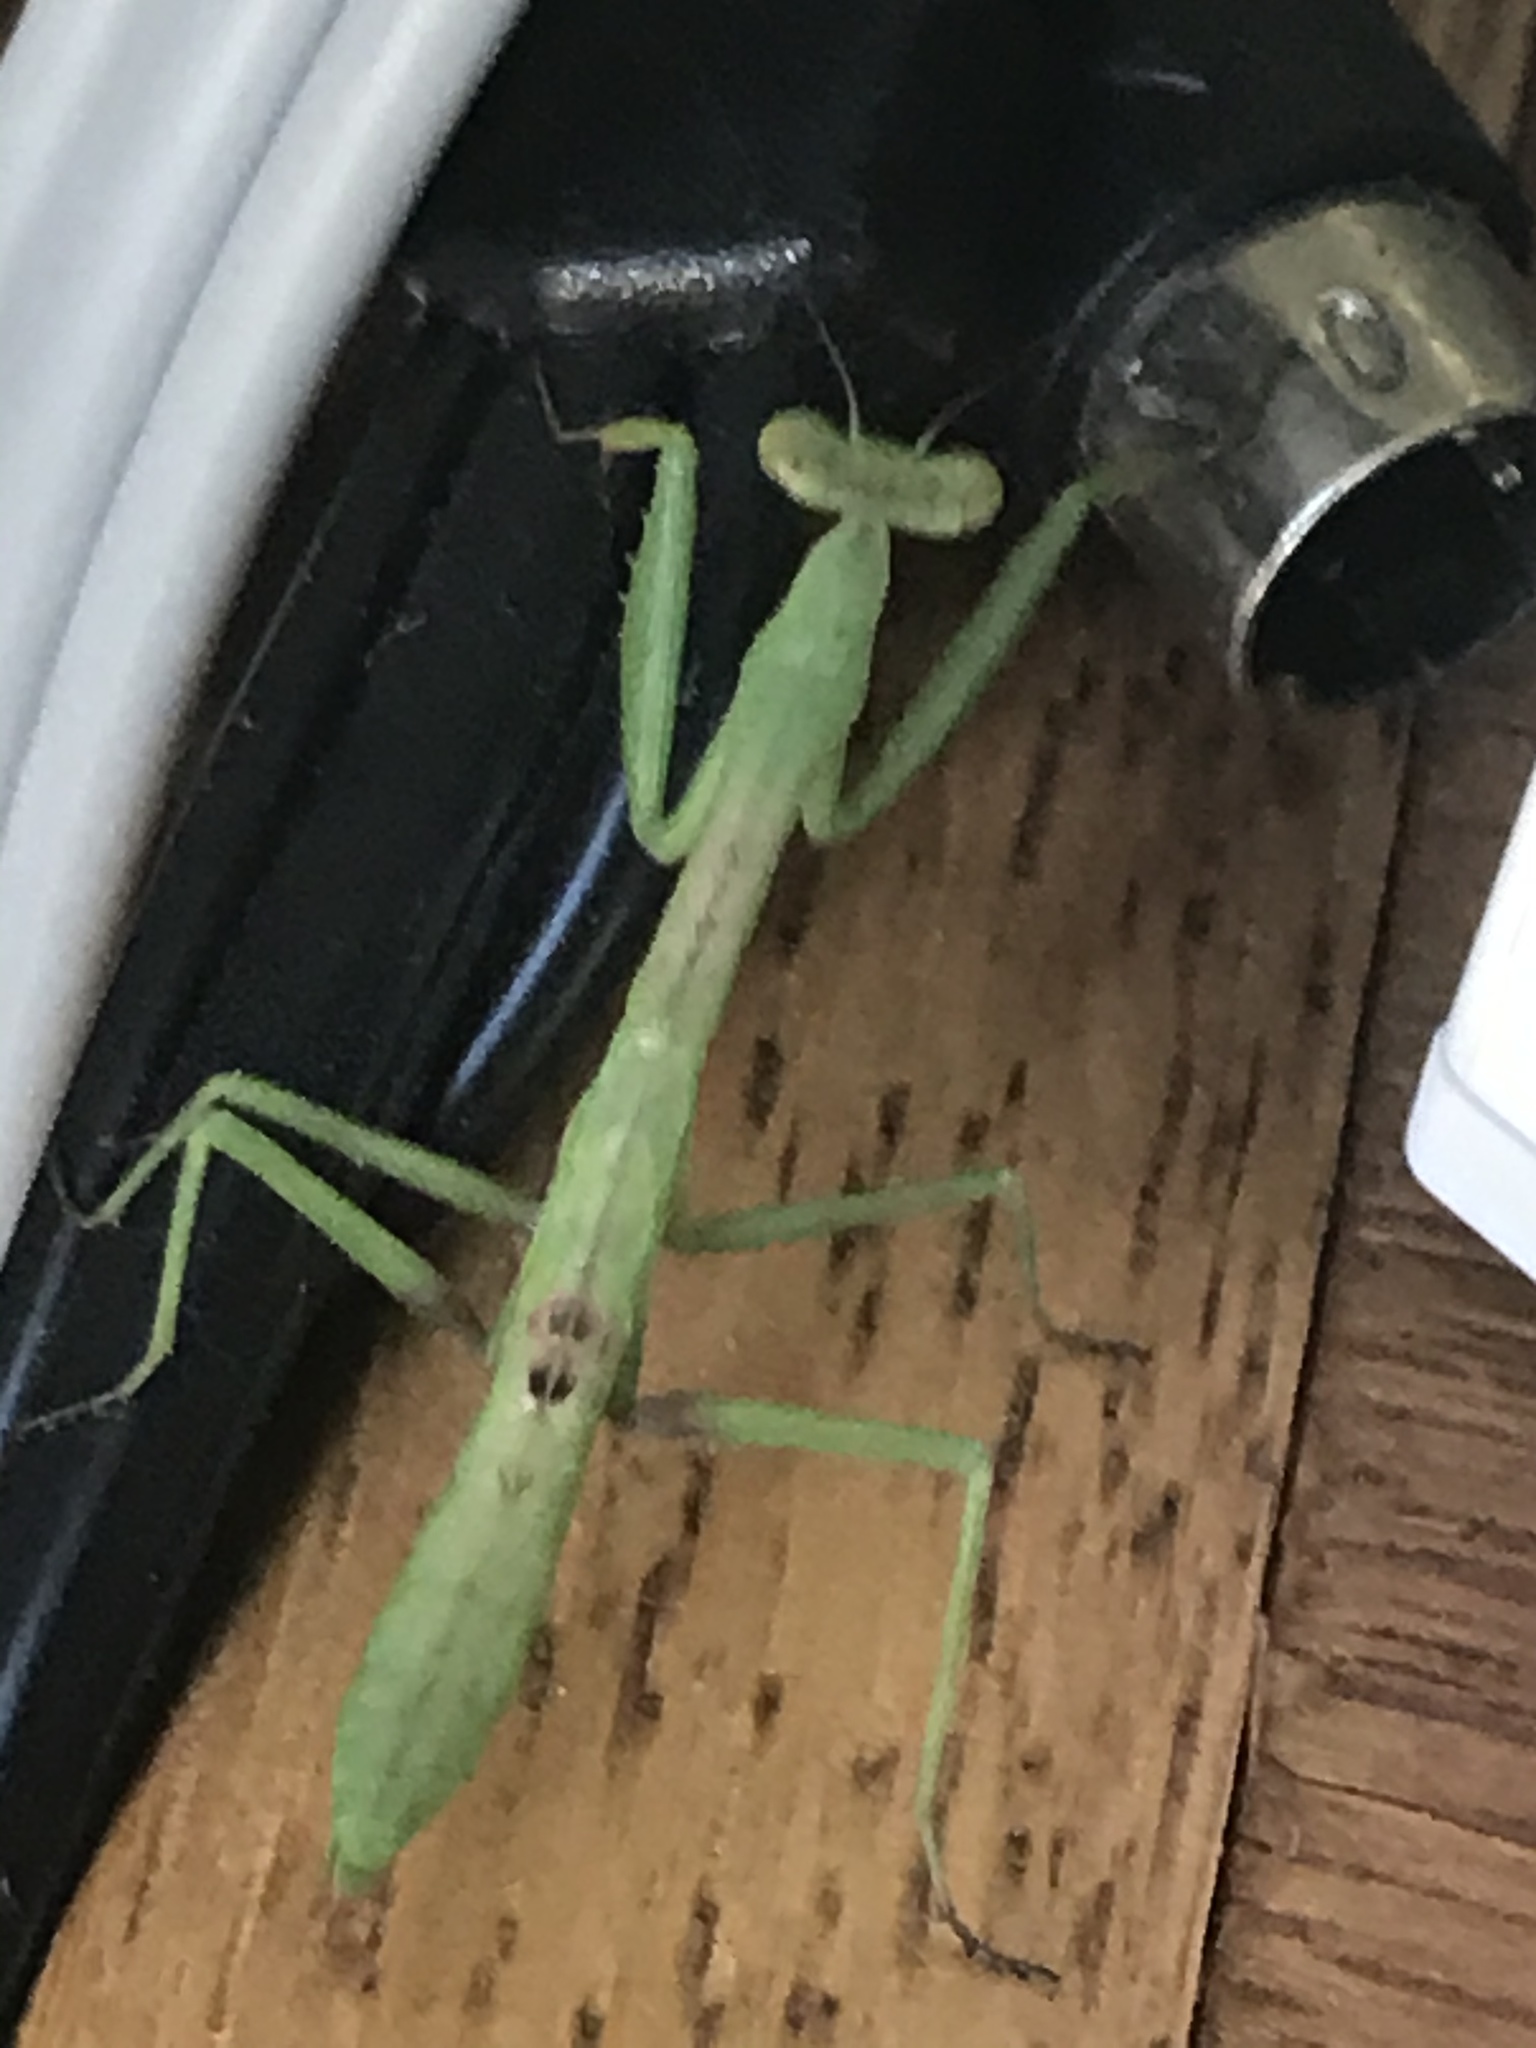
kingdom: Animalia
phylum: Arthropoda
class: Insecta
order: Mantodea
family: Mantidae
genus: Stagmomantis
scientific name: Stagmomantis carolina
